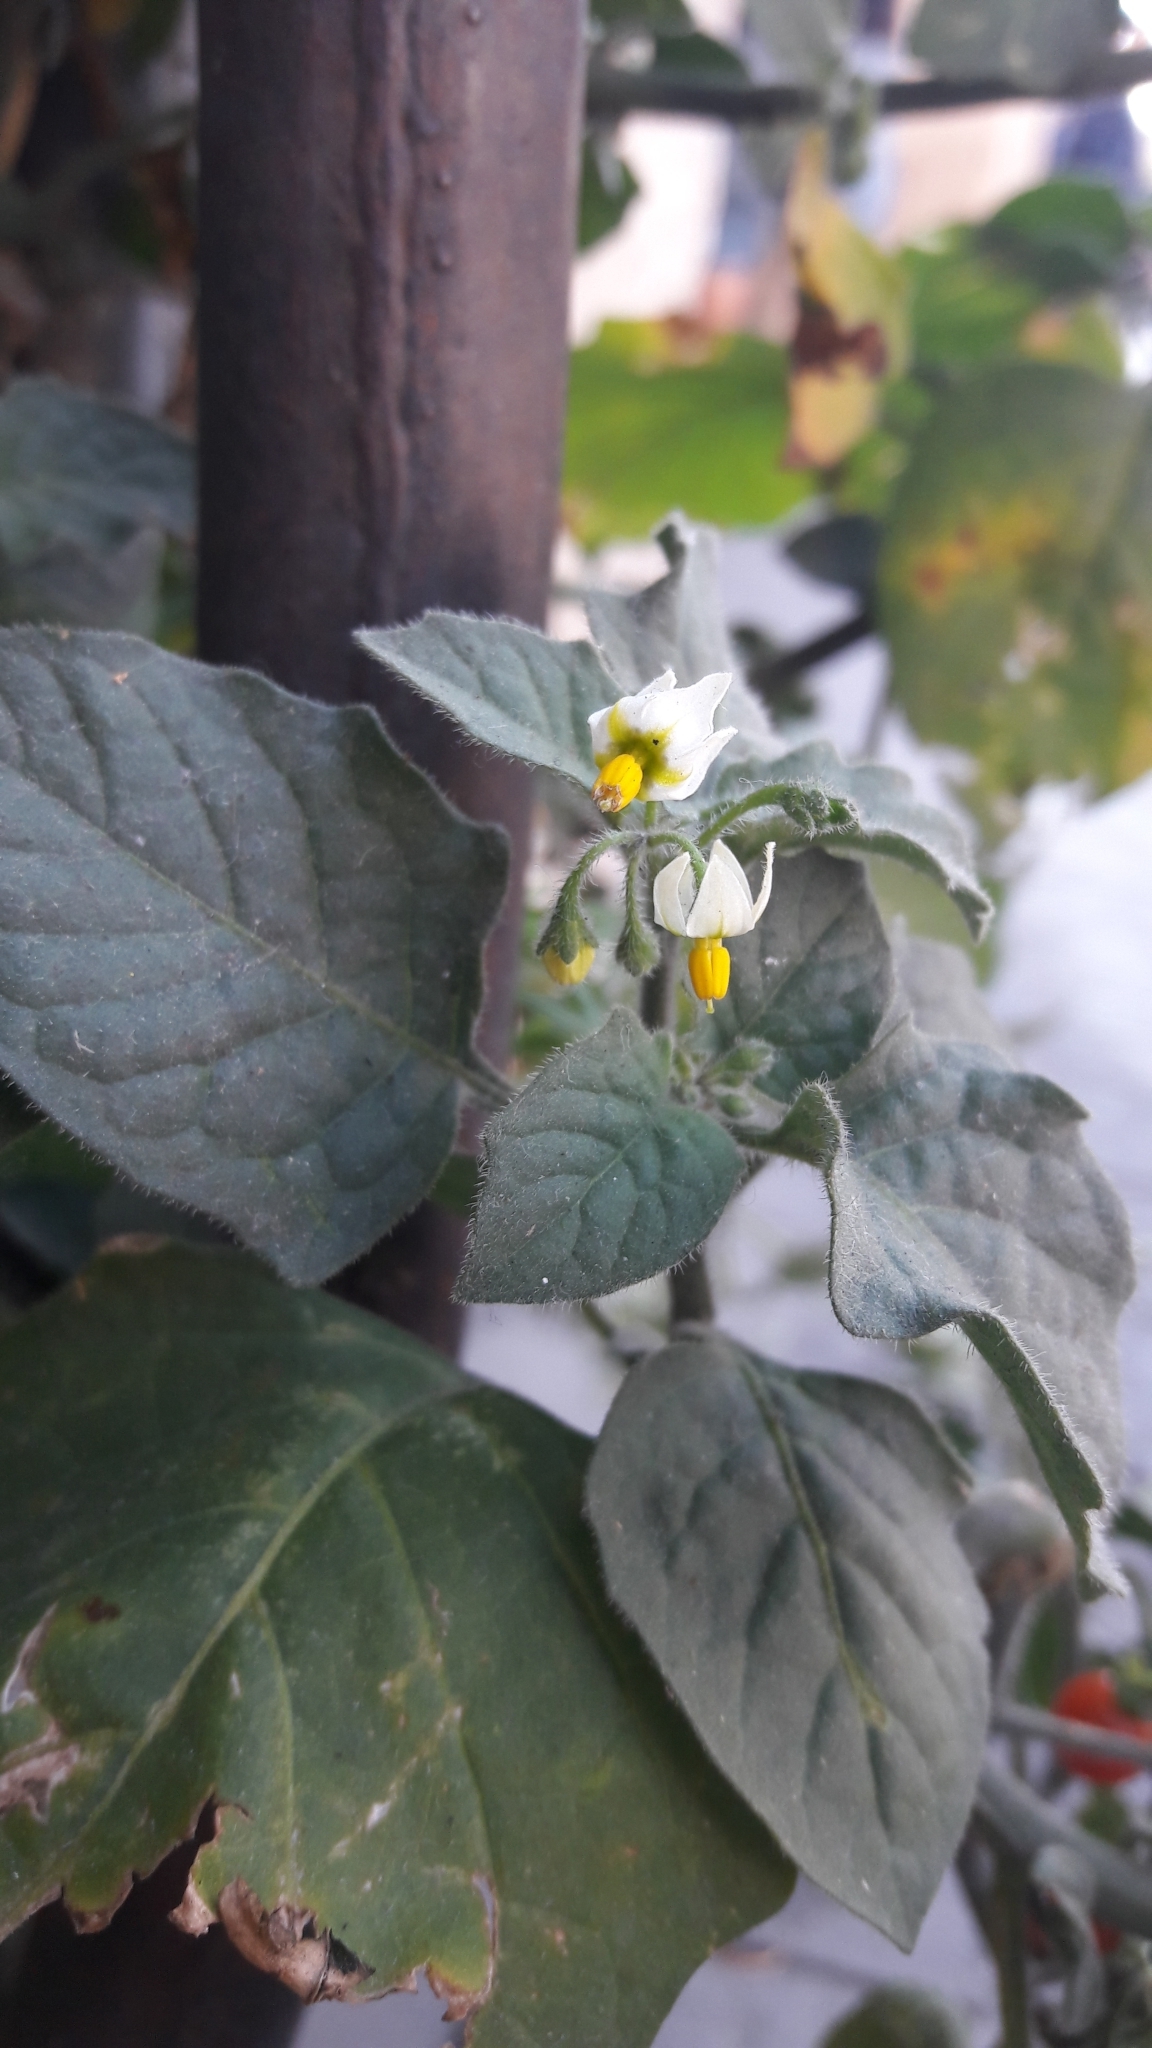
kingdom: Plantae
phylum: Tracheophyta
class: Magnoliopsida
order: Solanales
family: Solanaceae
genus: Solanum
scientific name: Solanum villosum
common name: Red nightshade
